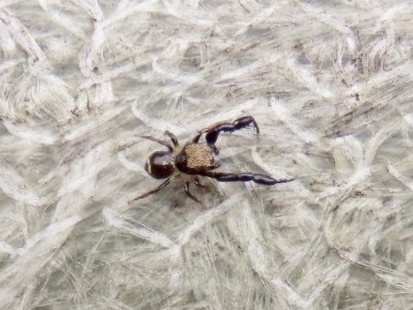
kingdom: Animalia
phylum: Arthropoda
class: Arachnida
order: Araneae
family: Salticidae
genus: Harmochirus
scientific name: Harmochirus insulanus
